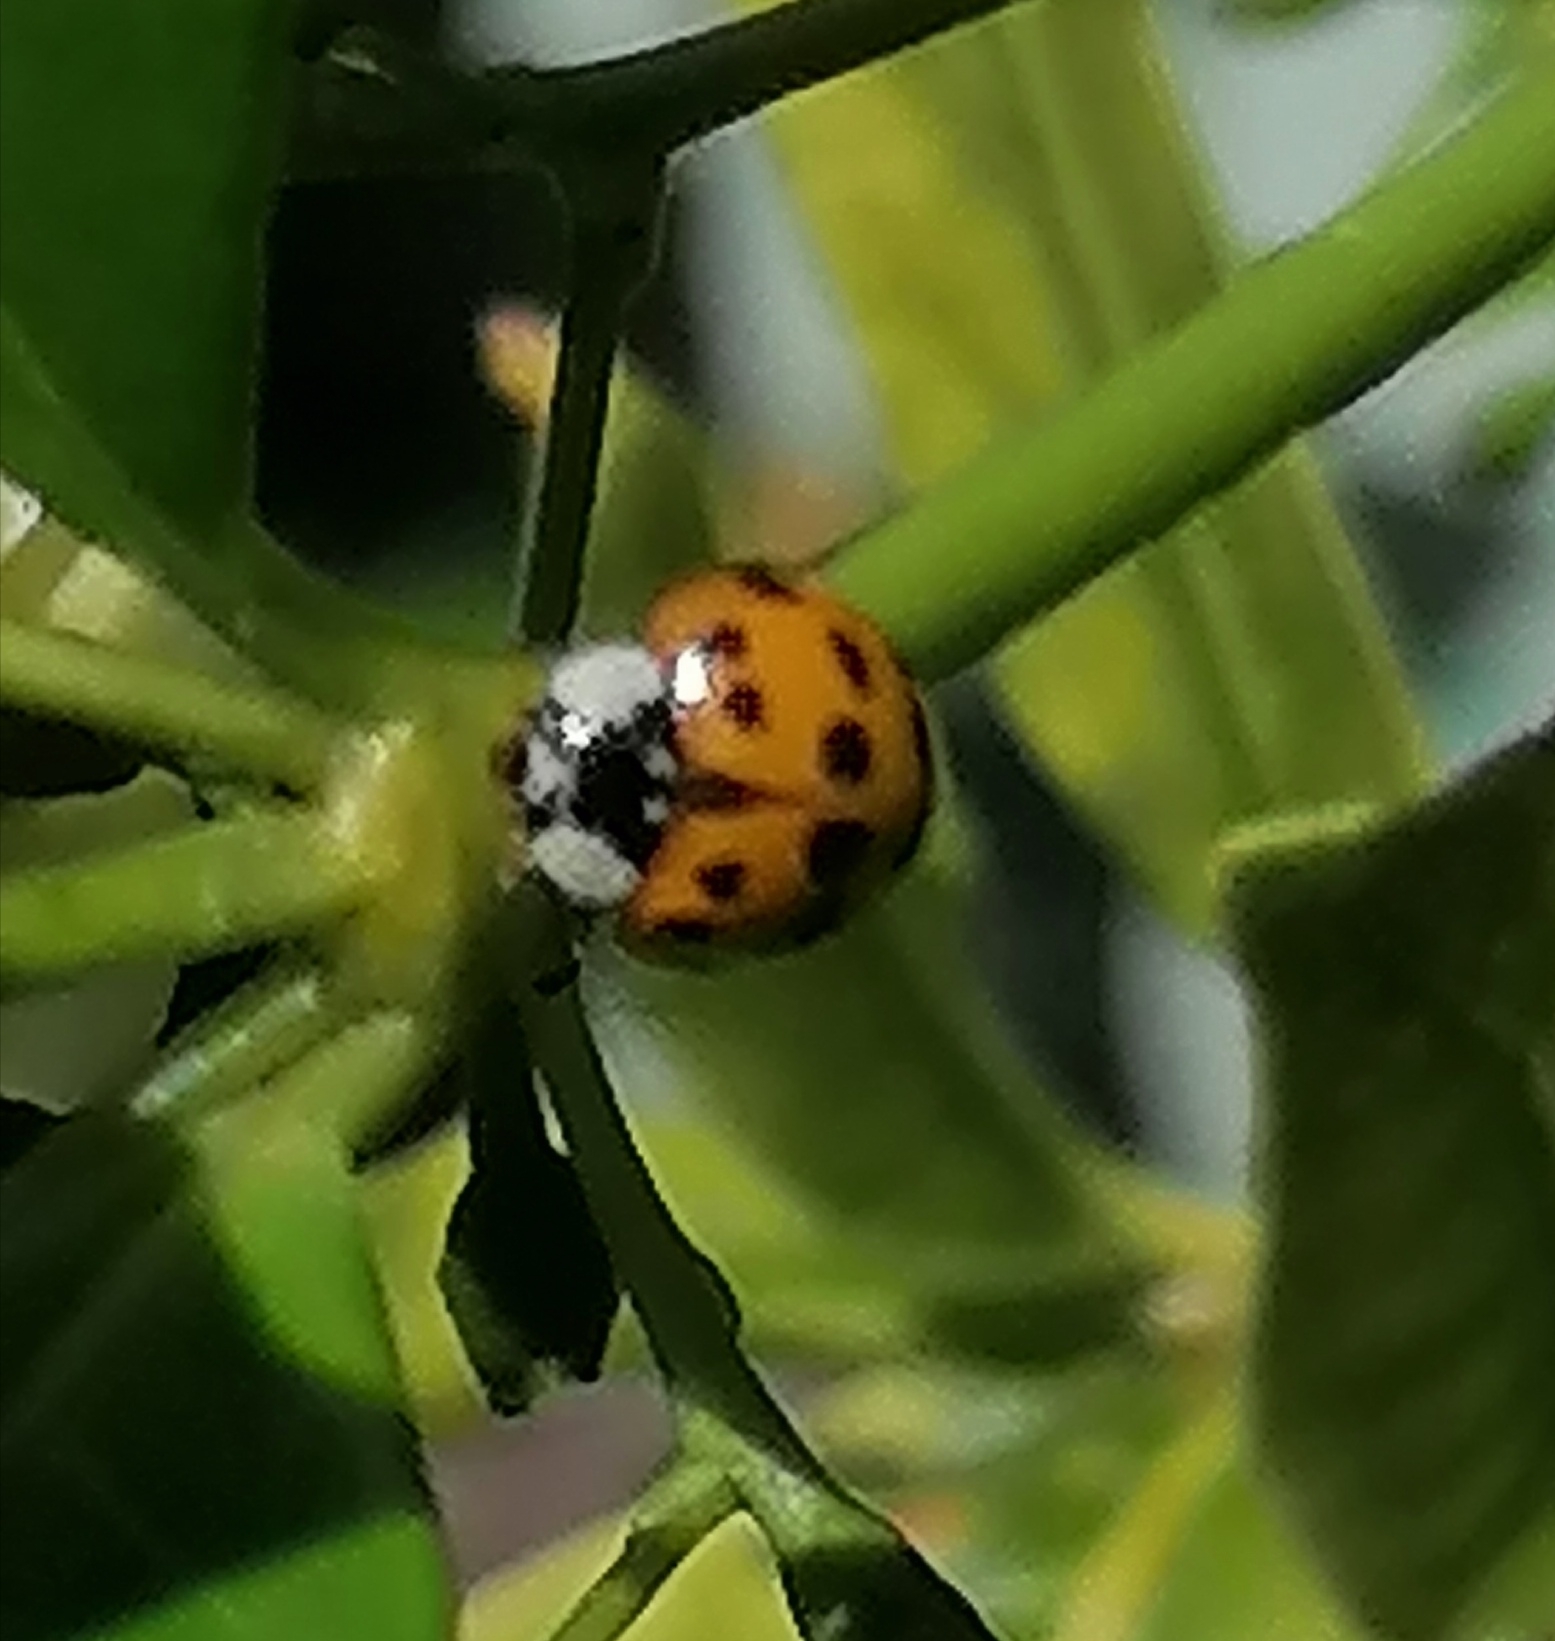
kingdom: Animalia
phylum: Arthropoda
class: Insecta
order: Coleoptera
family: Coccinellidae
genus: Harmonia
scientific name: Harmonia axyridis
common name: Harlequin ladybird
